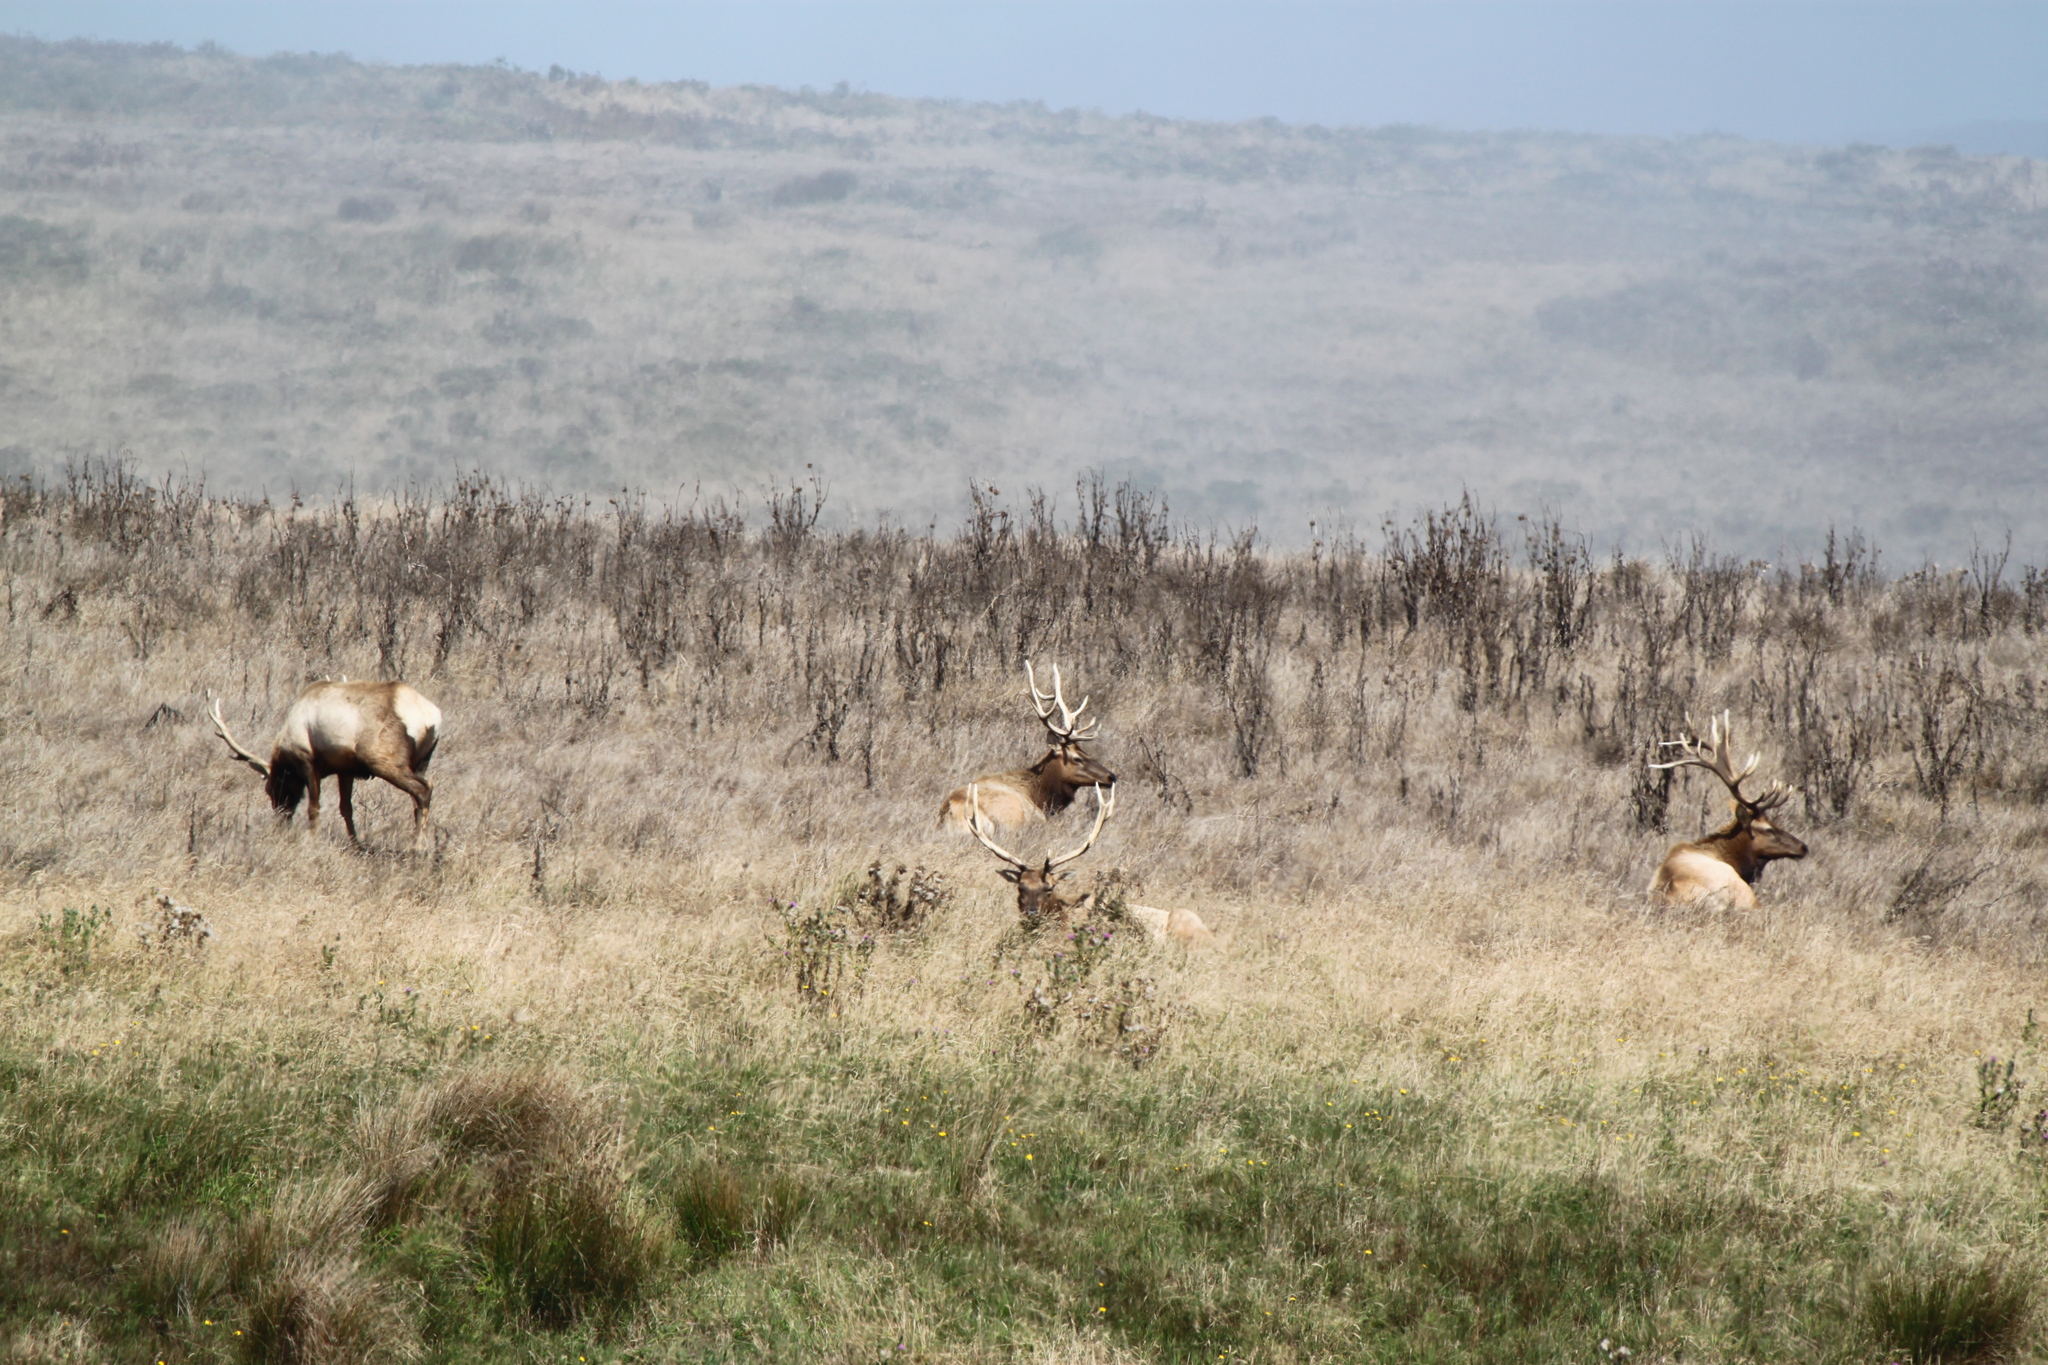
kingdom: Animalia
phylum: Chordata
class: Mammalia
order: Artiodactyla
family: Cervidae
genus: Cervus
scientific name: Cervus elaphus
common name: Red deer
